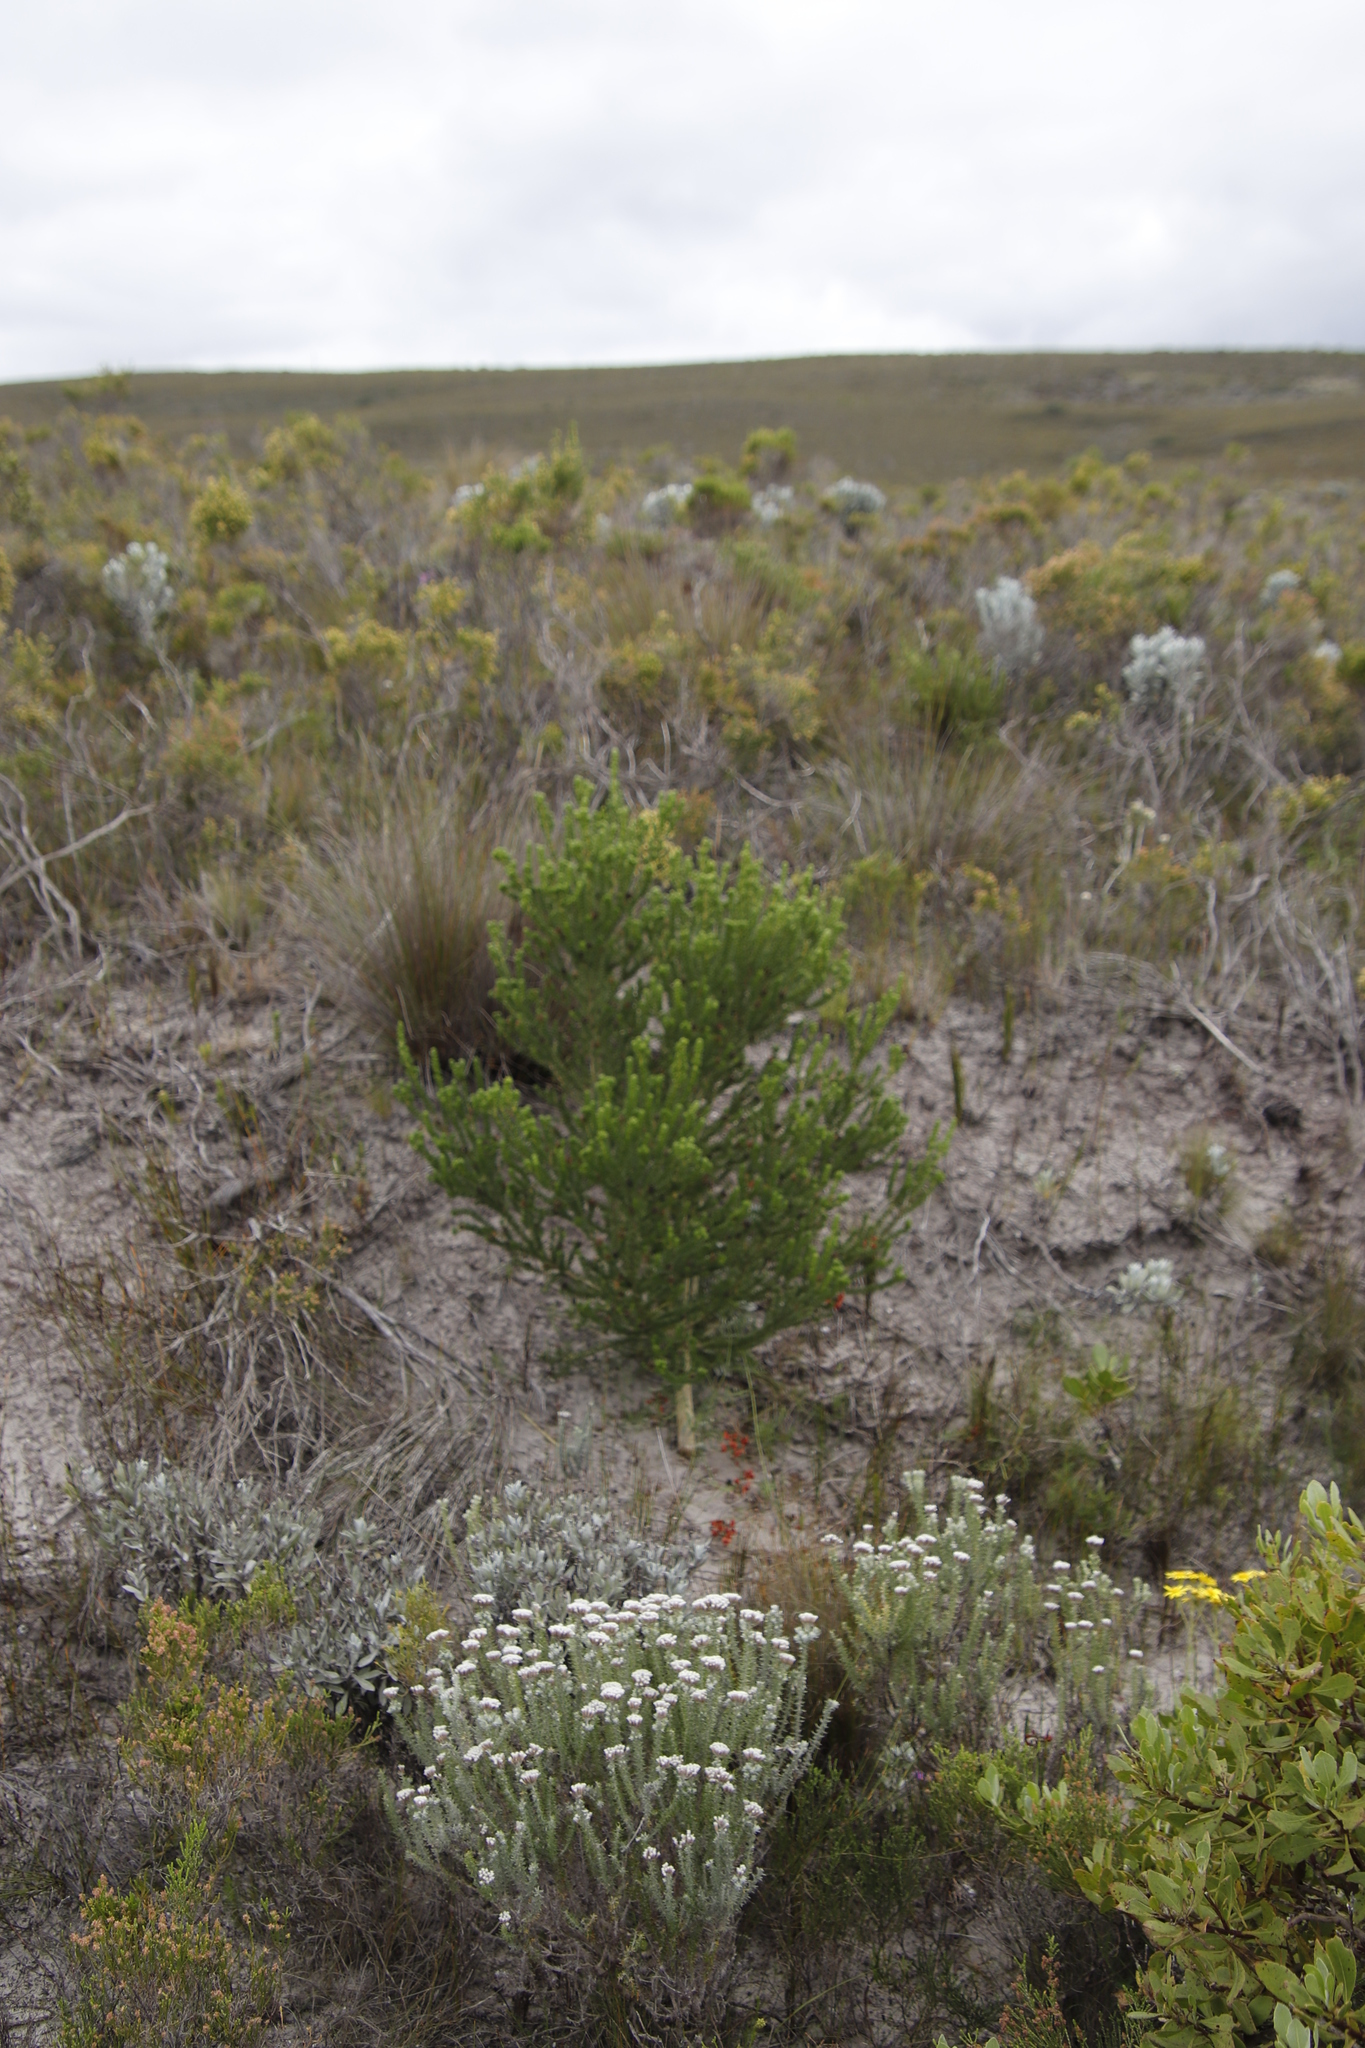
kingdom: Plantae
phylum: Tracheophyta
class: Magnoliopsida
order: Fabales
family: Fabaceae
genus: Aspalathus
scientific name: Aspalathus forbesii
